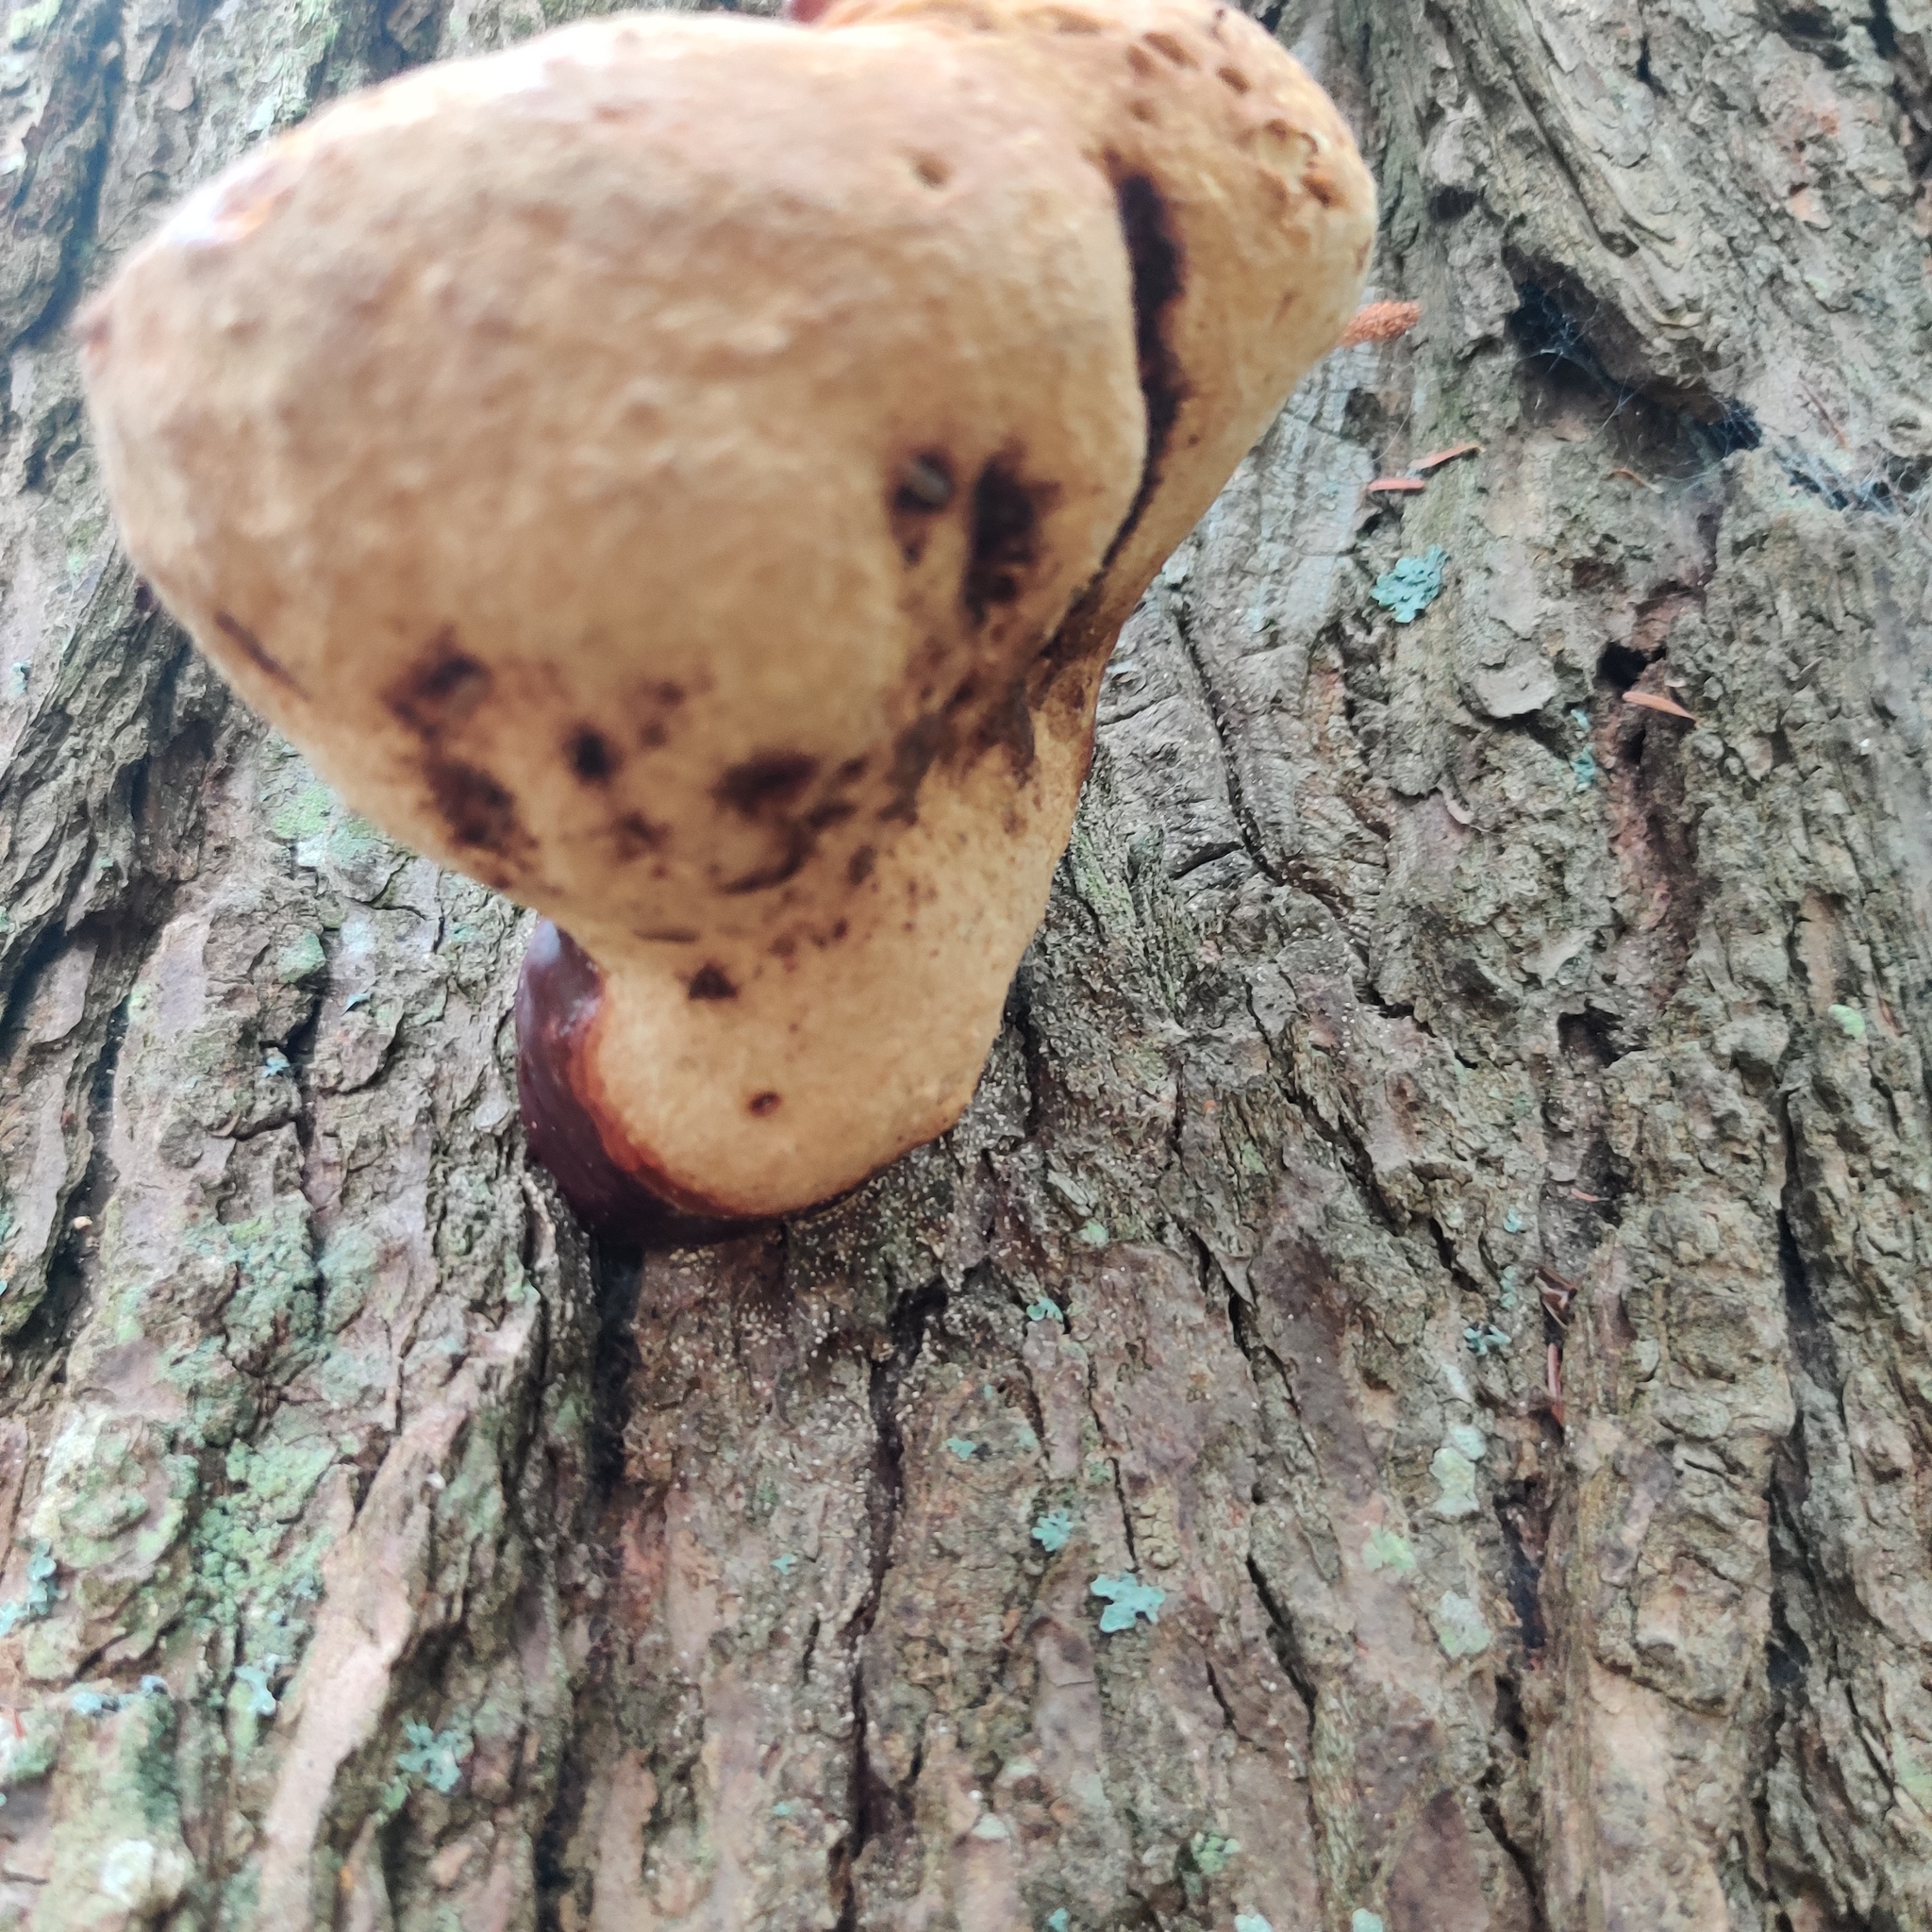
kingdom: Fungi
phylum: Basidiomycota
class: Agaricomycetes
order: Polyporales
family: Polyporaceae
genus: Ganoderma
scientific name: Ganoderma tsugae
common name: Hemlock varnish shelf
